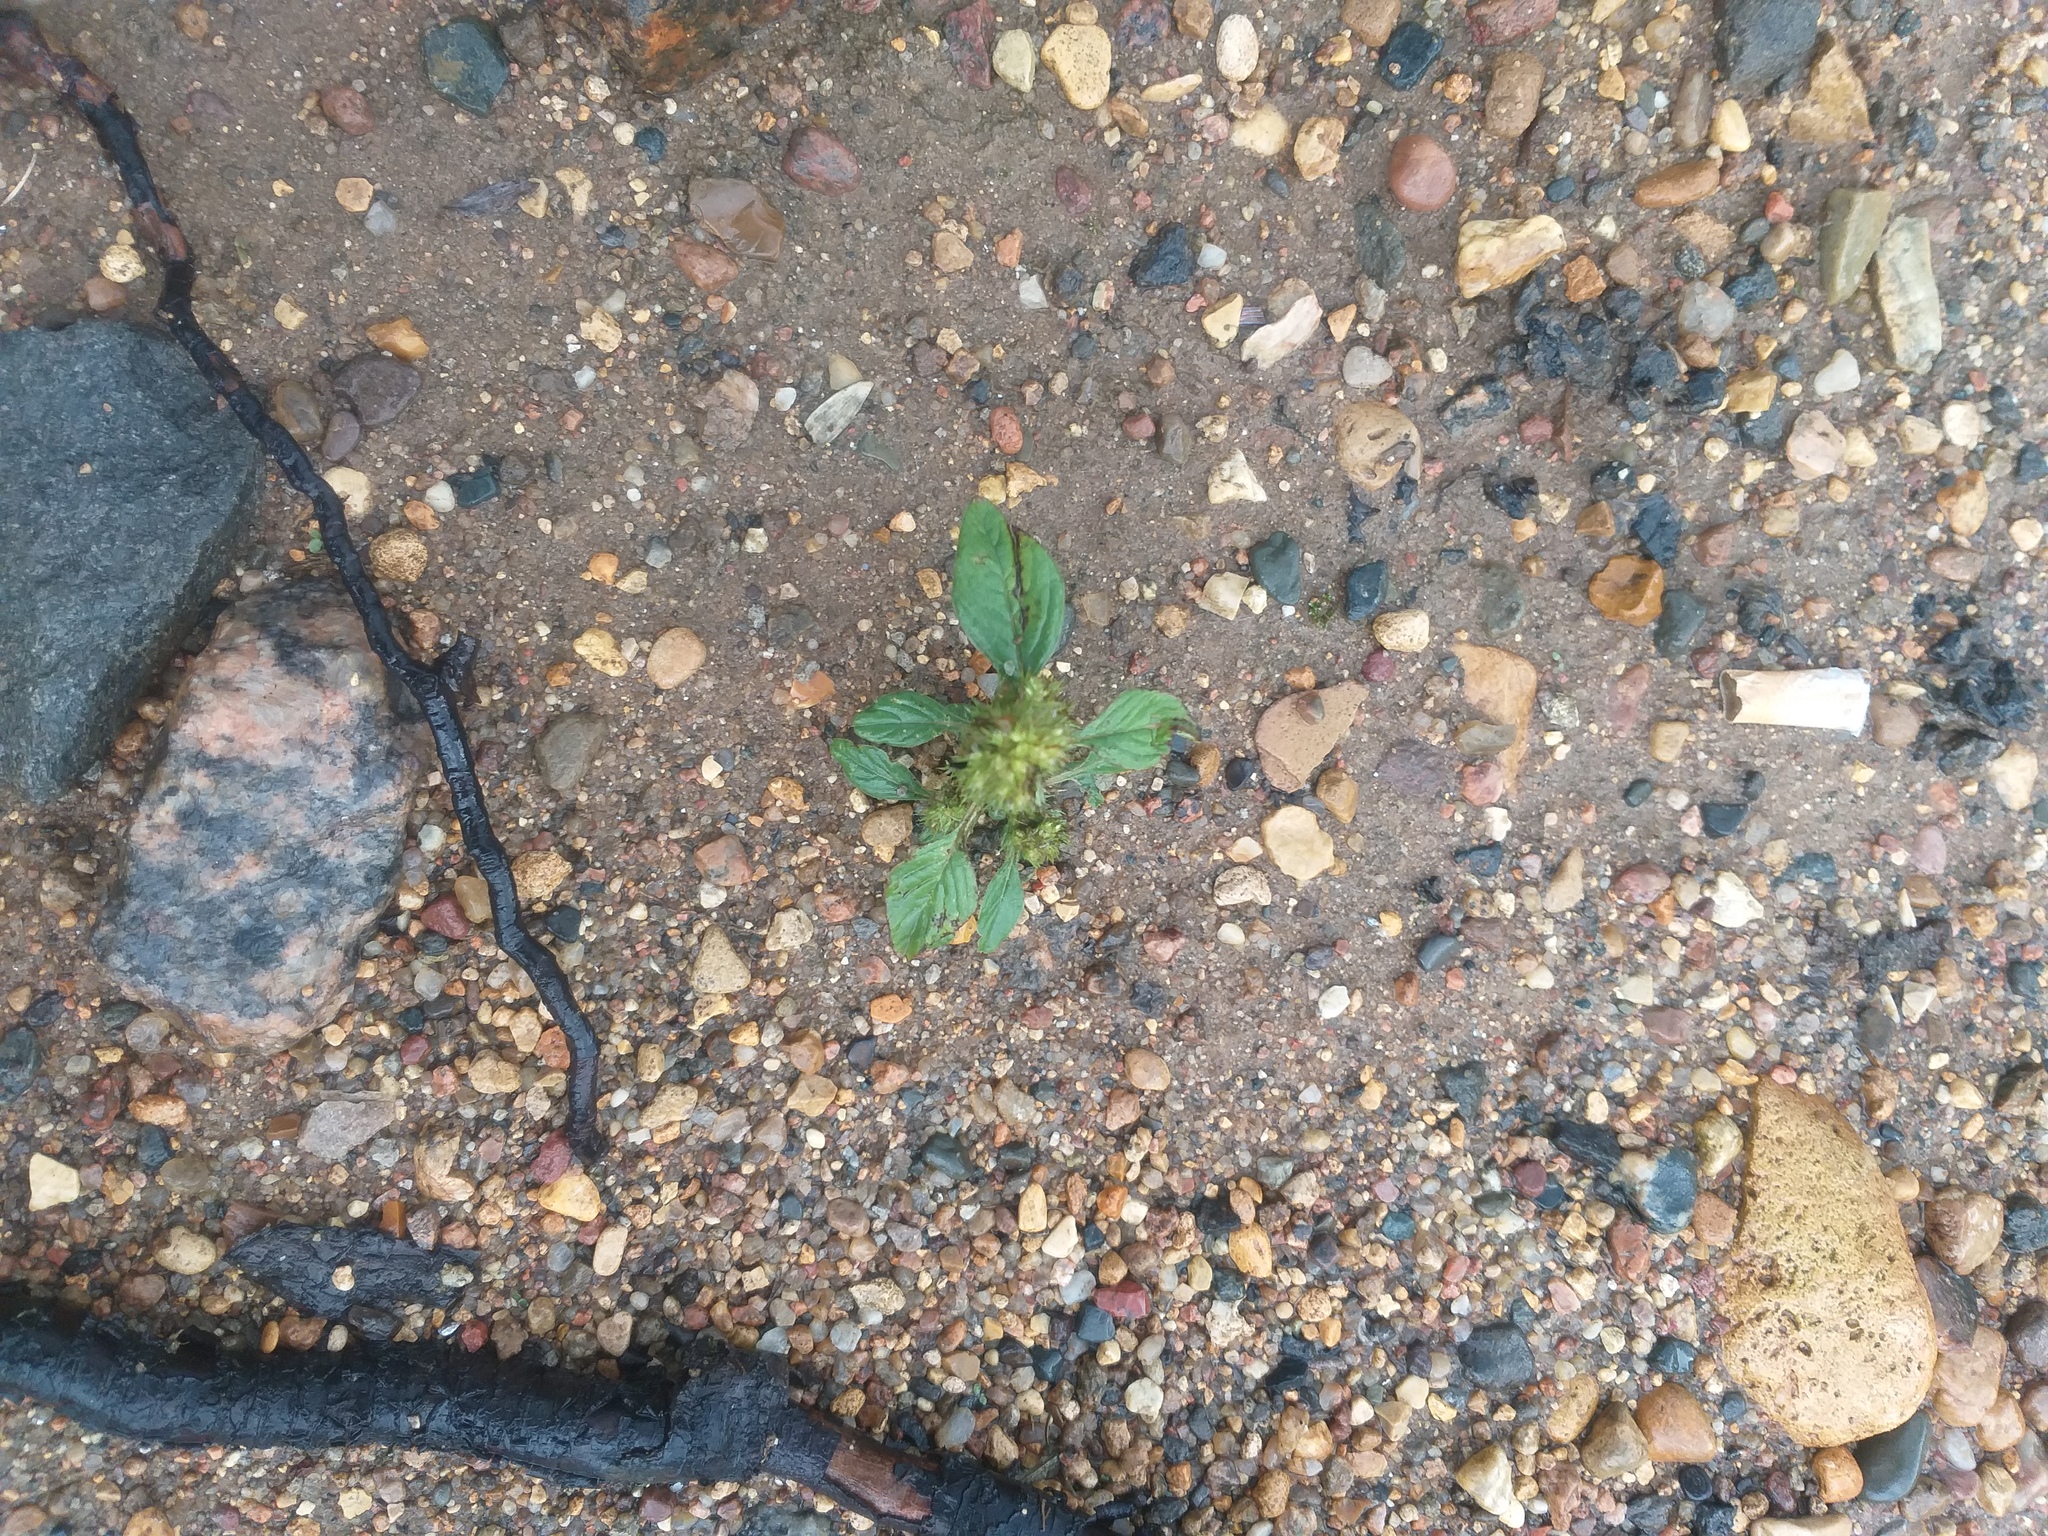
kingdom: Plantae
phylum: Tracheophyta
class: Magnoliopsida
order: Caryophyllales
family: Amaranthaceae
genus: Amaranthus
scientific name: Amaranthus retroflexus
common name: Redroot amaranth
